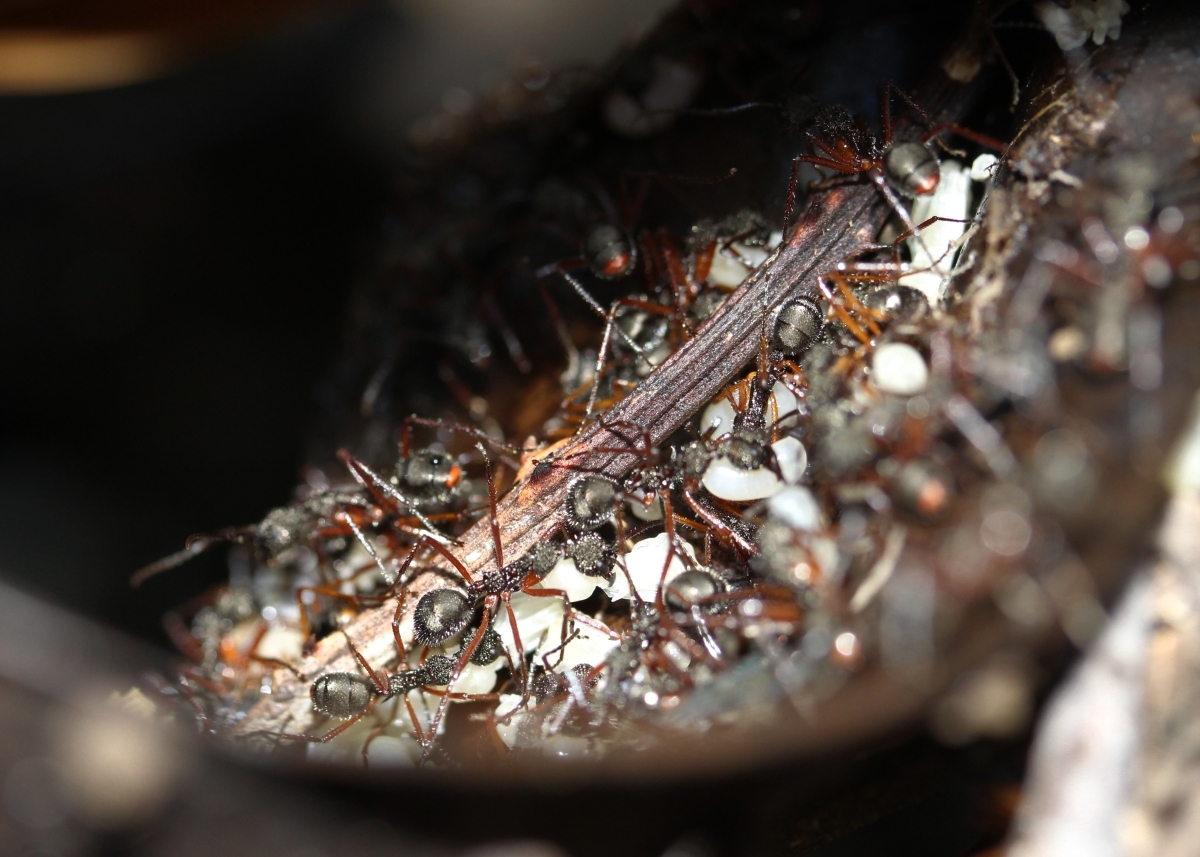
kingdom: Animalia
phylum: Arthropoda
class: Insecta
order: Hymenoptera
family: Formicidae
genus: Dolichoderus
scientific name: Dolichoderus attelaboides
